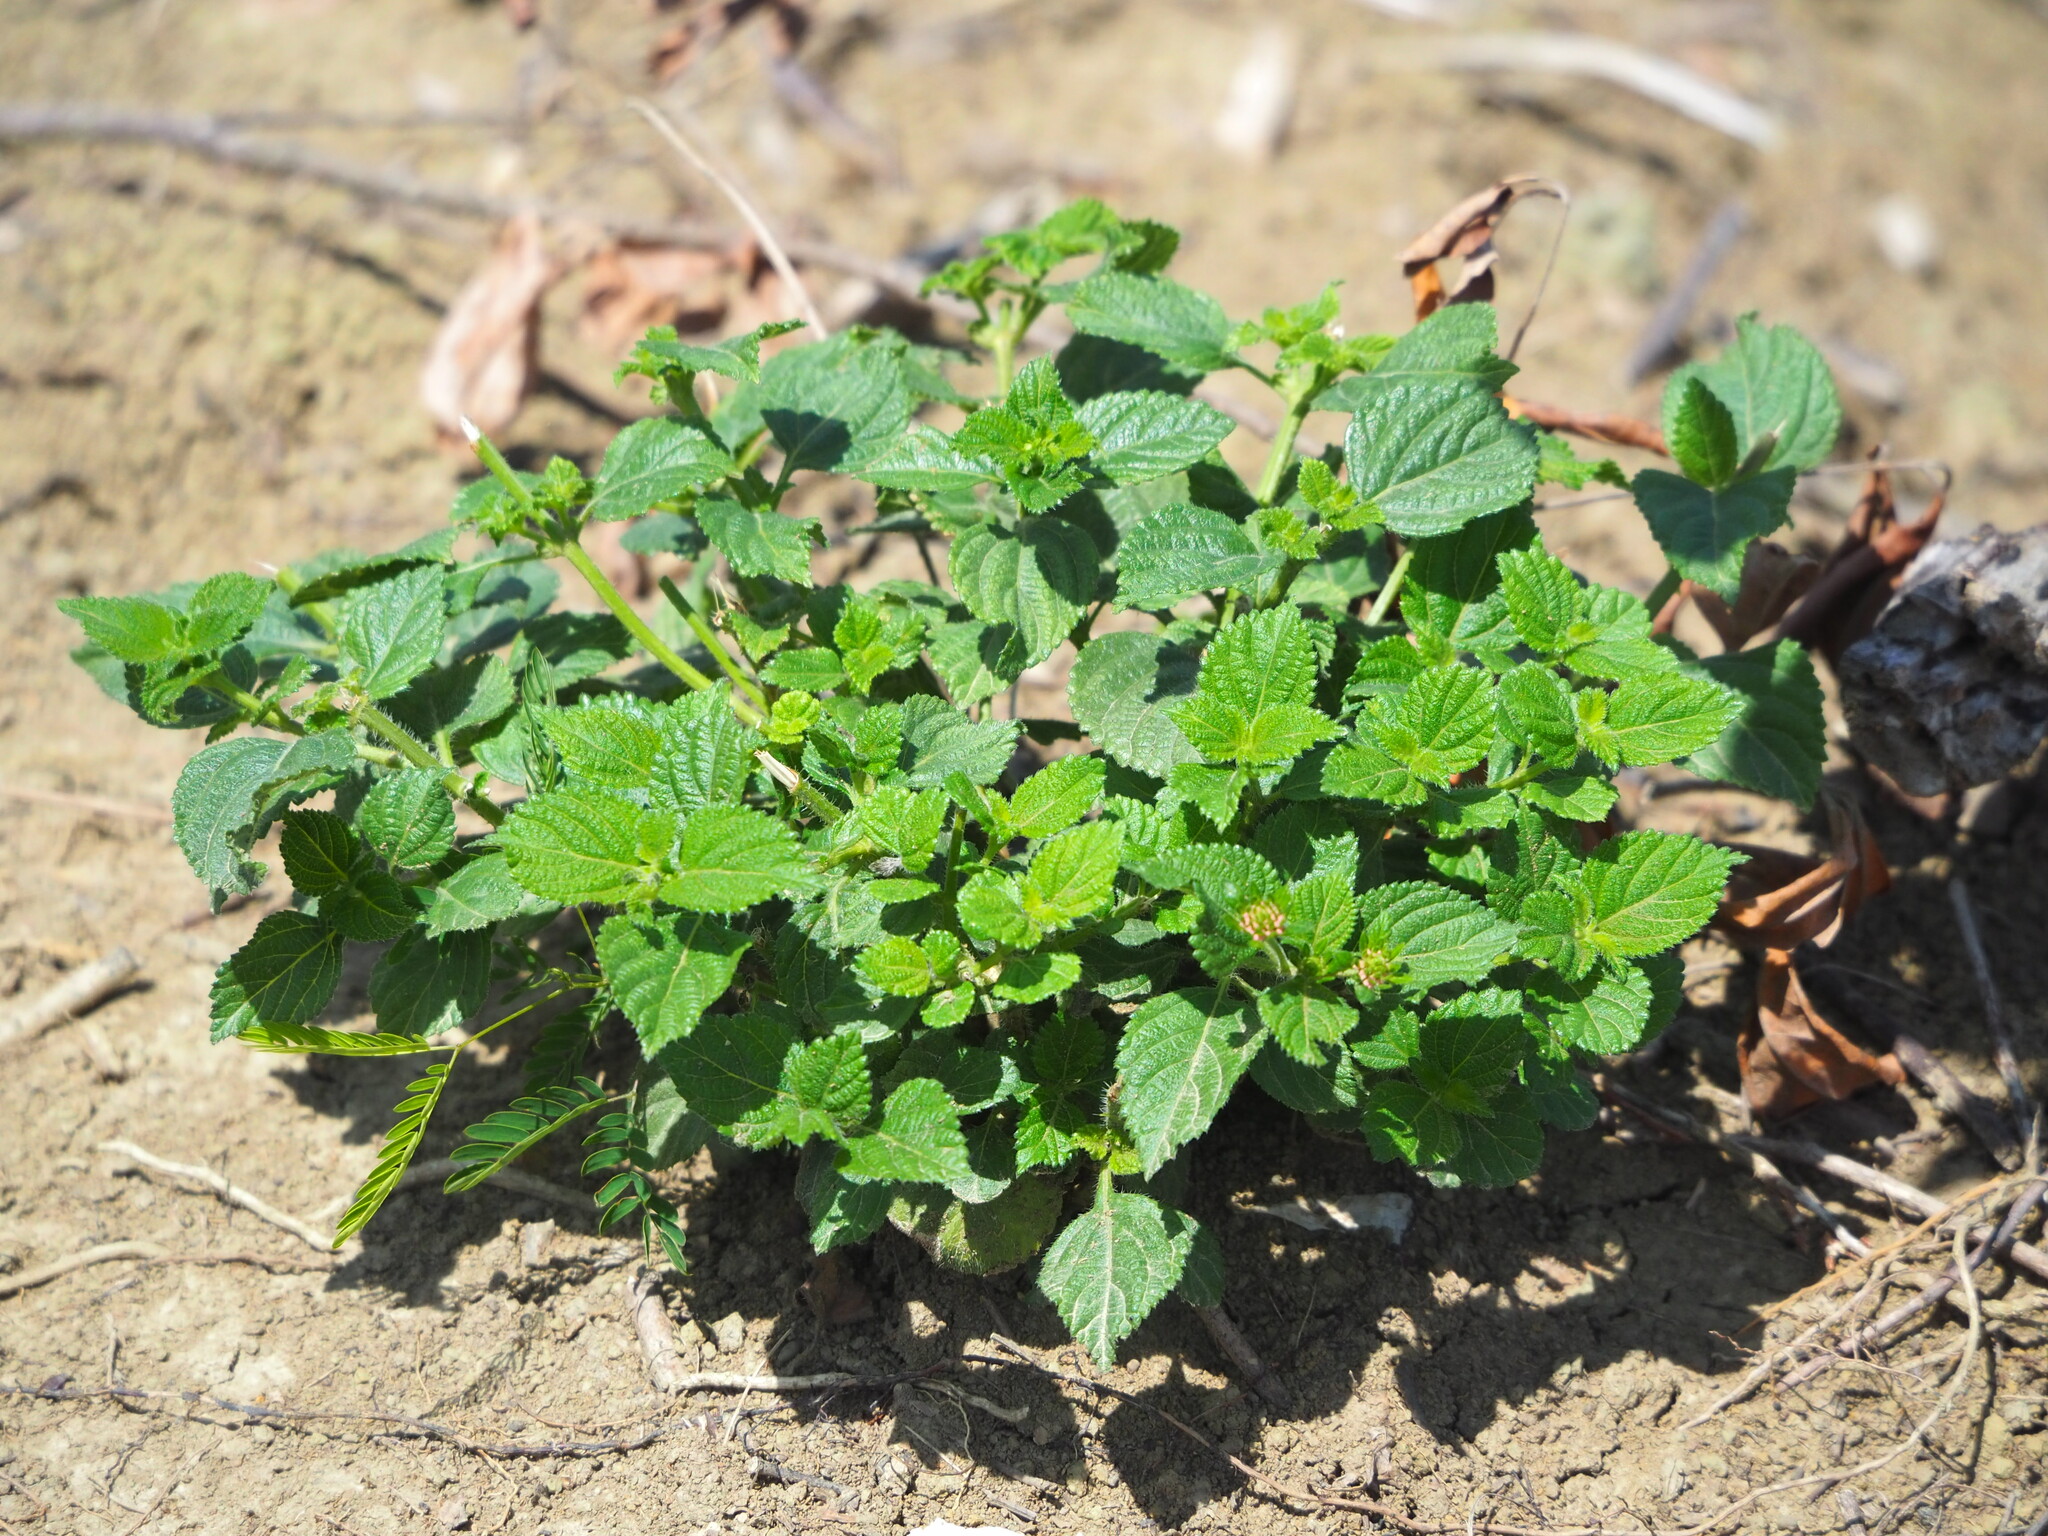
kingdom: Plantae
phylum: Tracheophyta
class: Magnoliopsida
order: Lamiales
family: Verbenaceae
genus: Lantana
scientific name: Lantana camara
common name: Lantana
